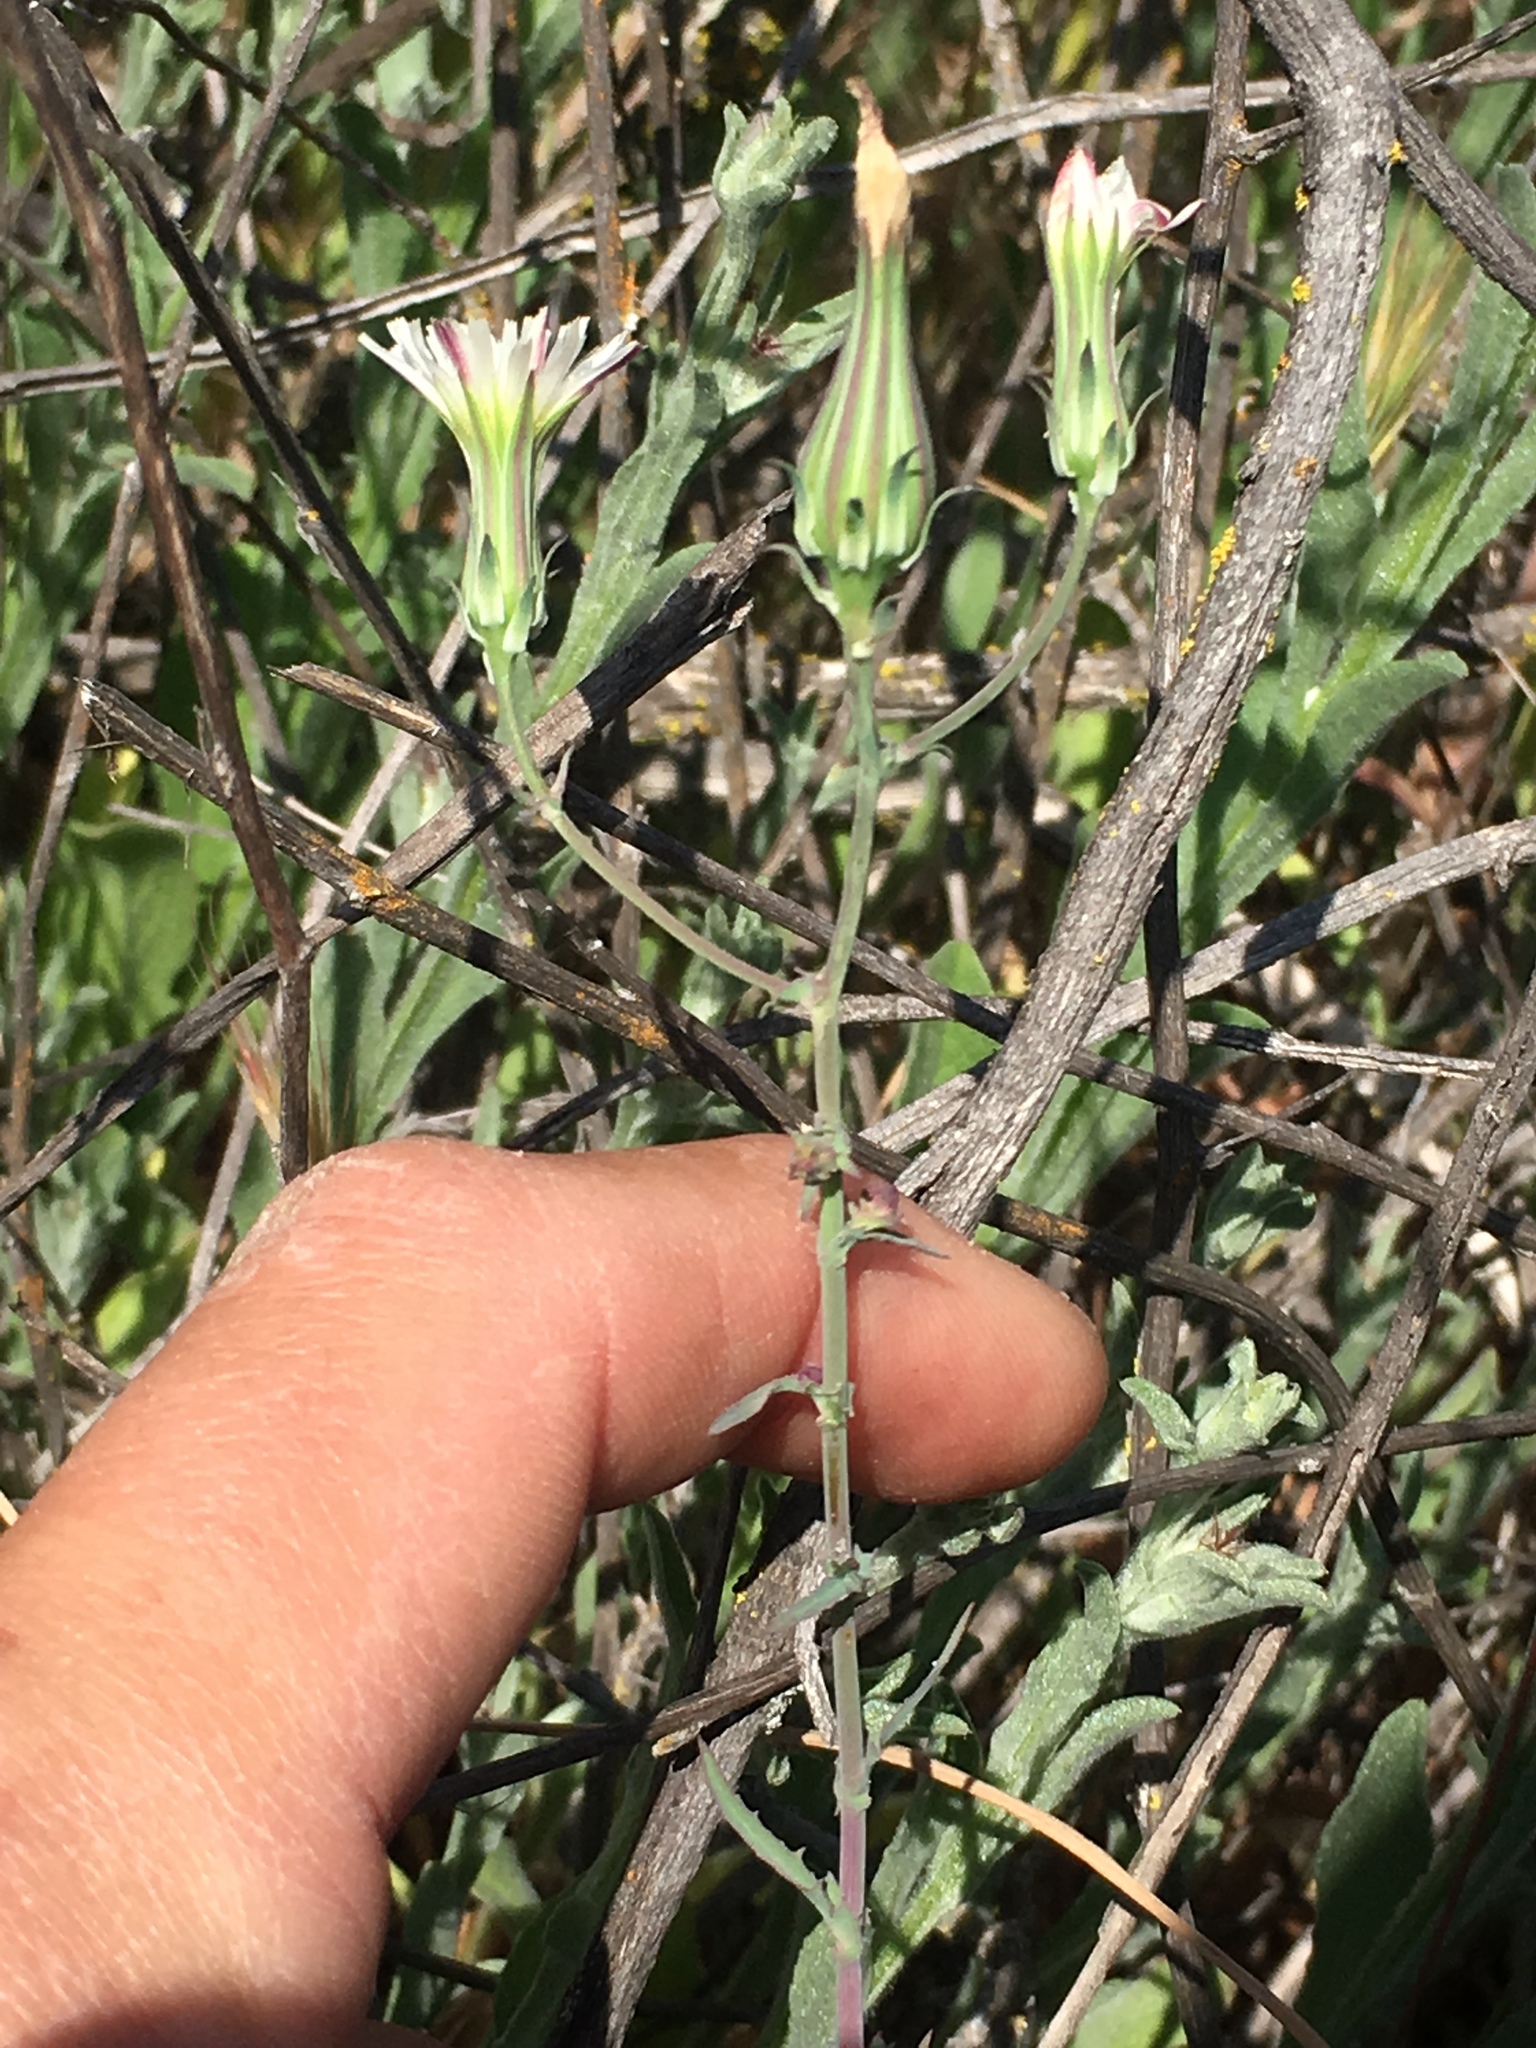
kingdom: Plantae
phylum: Tracheophyta
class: Magnoliopsida
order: Asterales
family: Asteraceae
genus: Rafinesquia
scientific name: Rafinesquia californica
